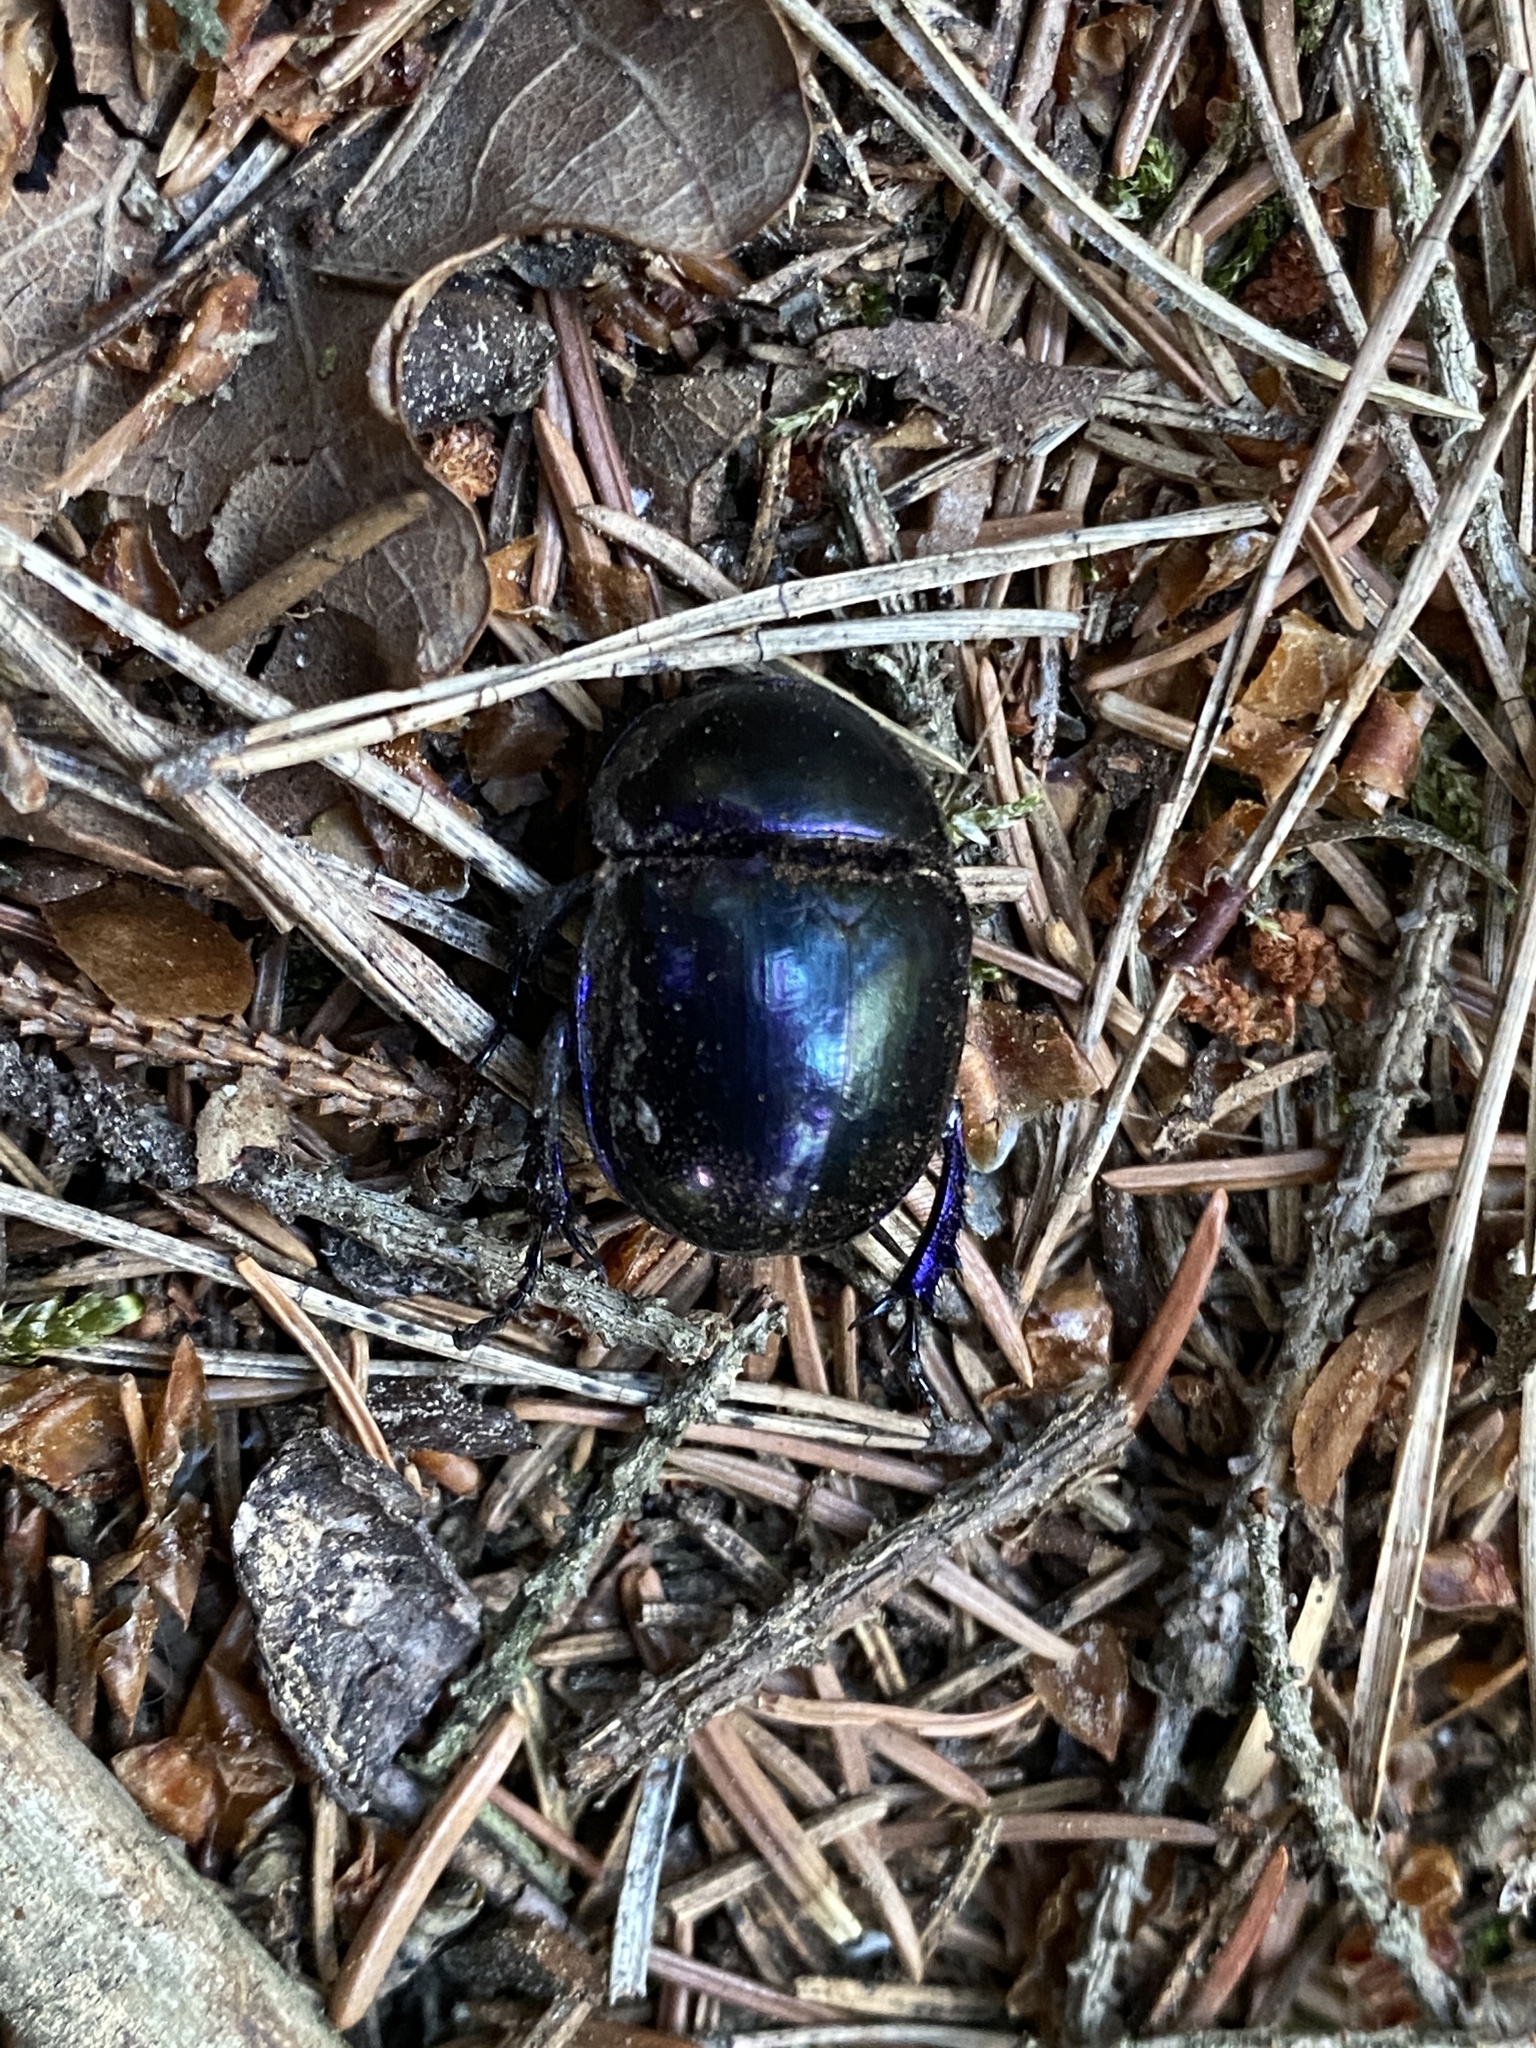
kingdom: Animalia
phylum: Arthropoda
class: Insecta
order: Coleoptera
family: Geotrupidae
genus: Trypocopris
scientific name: Trypocopris vernalis
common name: Spring dumbledor
